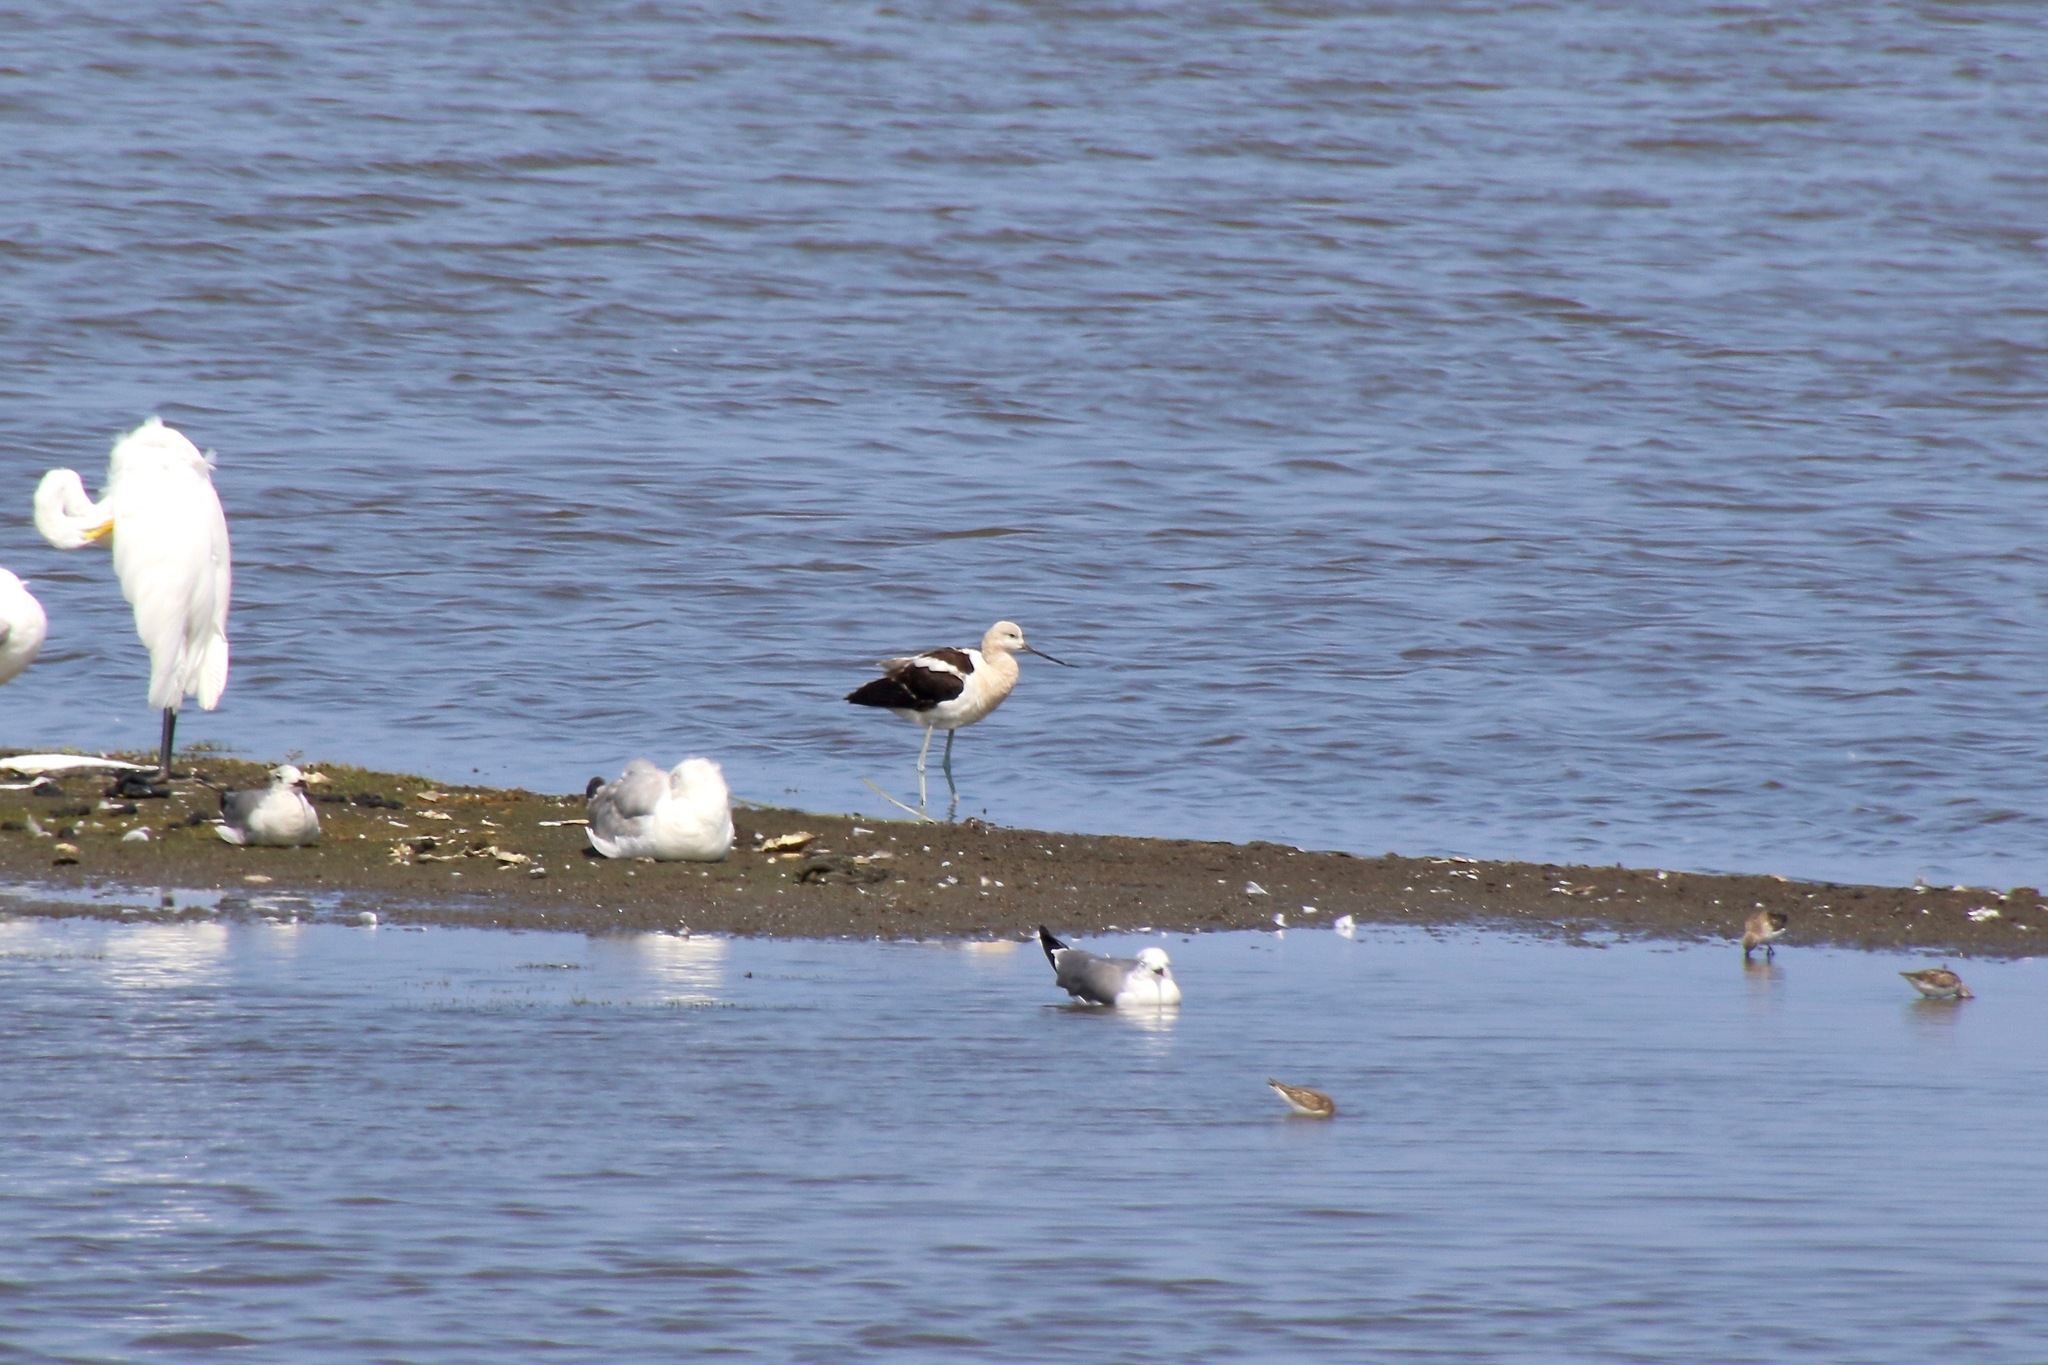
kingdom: Animalia
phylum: Chordata
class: Aves
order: Charadriiformes
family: Recurvirostridae
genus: Recurvirostra
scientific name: Recurvirostra americana
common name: American avocet
